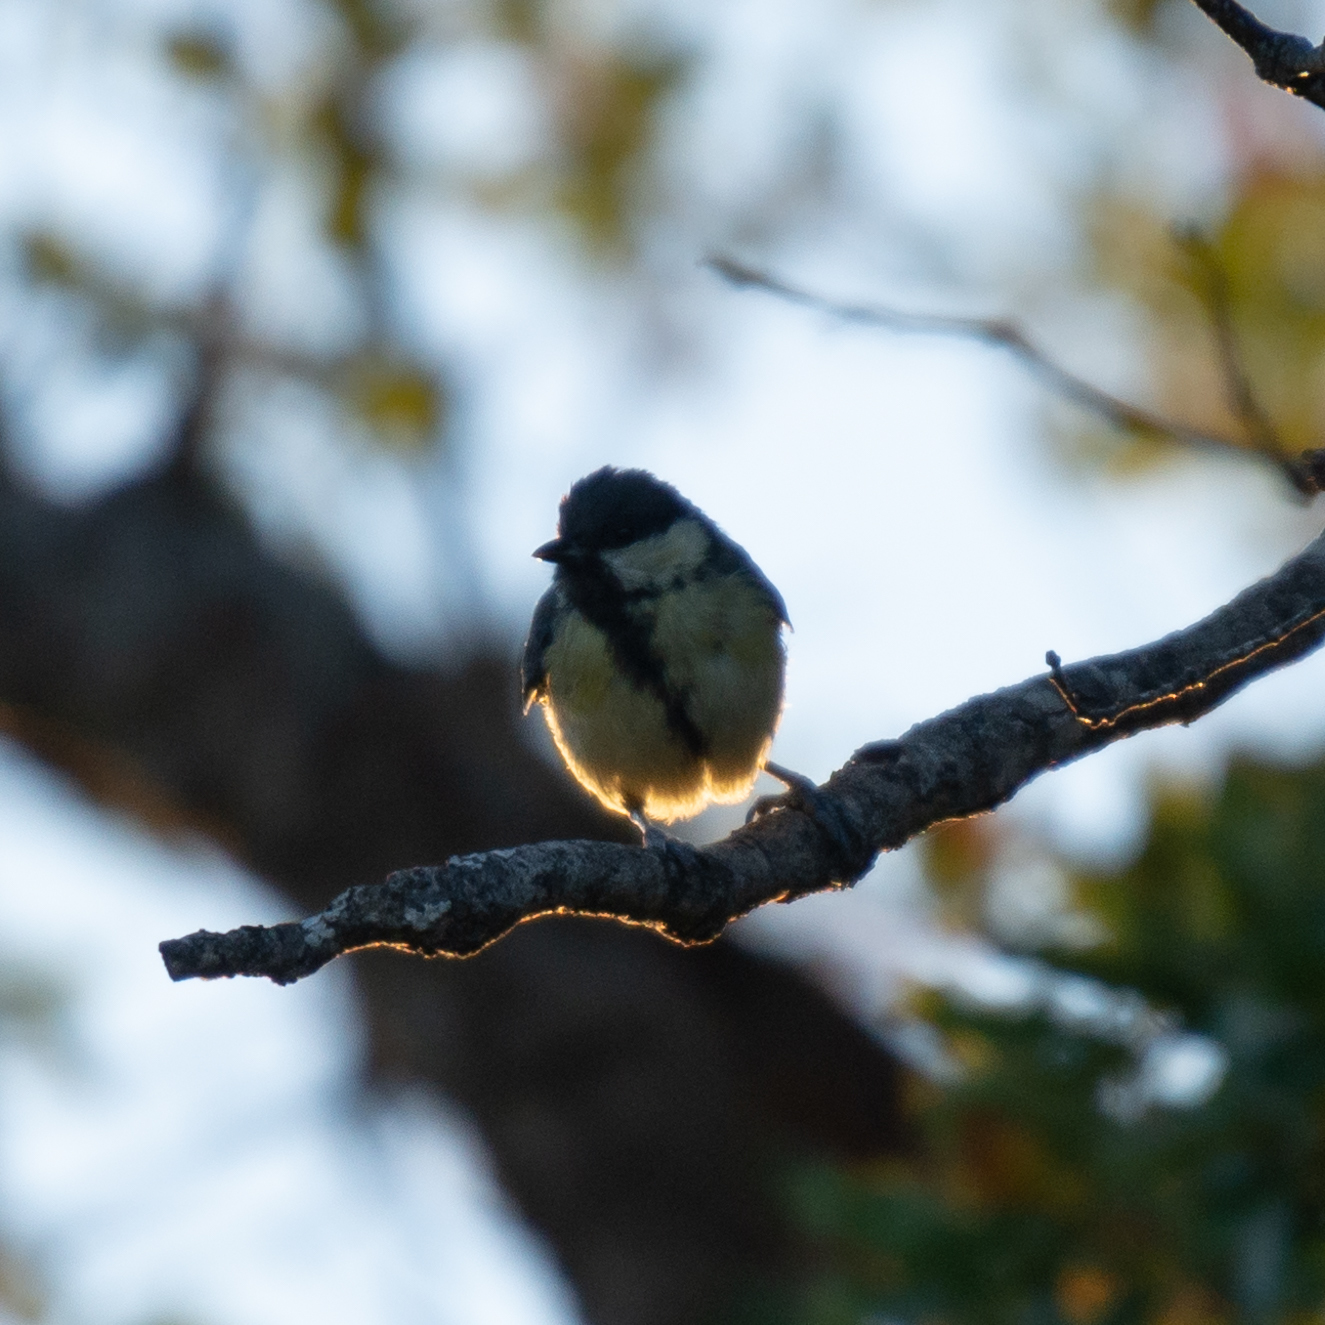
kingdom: Animalia
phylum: Chordata
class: Aves
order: Passeriformes
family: Paridae
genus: Parus
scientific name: Parus major
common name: Great tit
